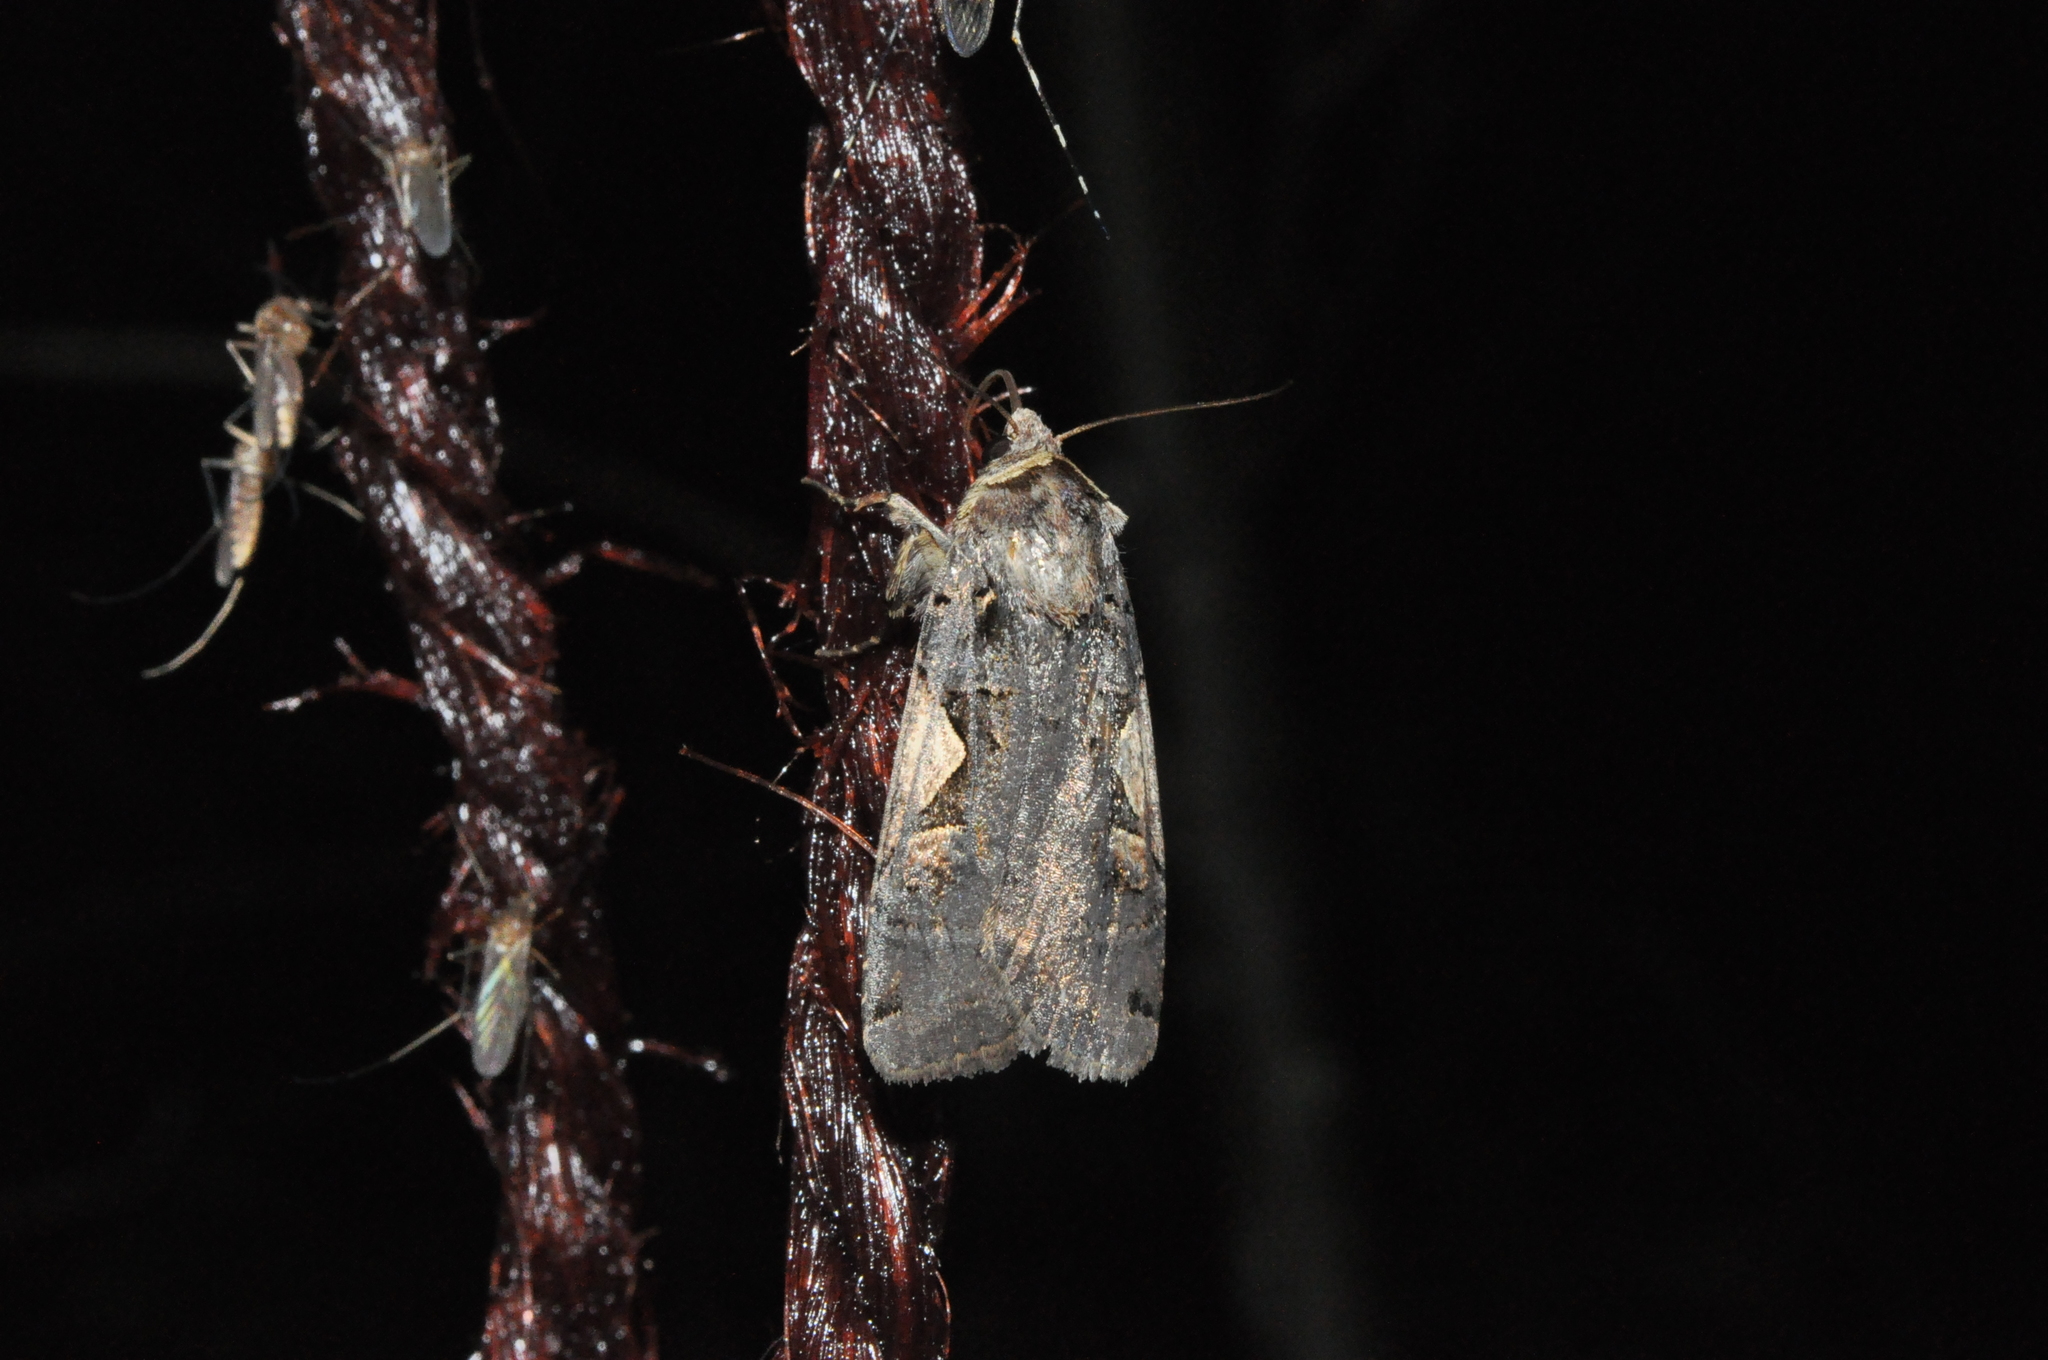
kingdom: Animalia
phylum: Arthropoda
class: Insecta
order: Lepidoptera
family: Noctuidae
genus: Xestia
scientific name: Xestia c-nigrum
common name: Setaceous hebrew character
